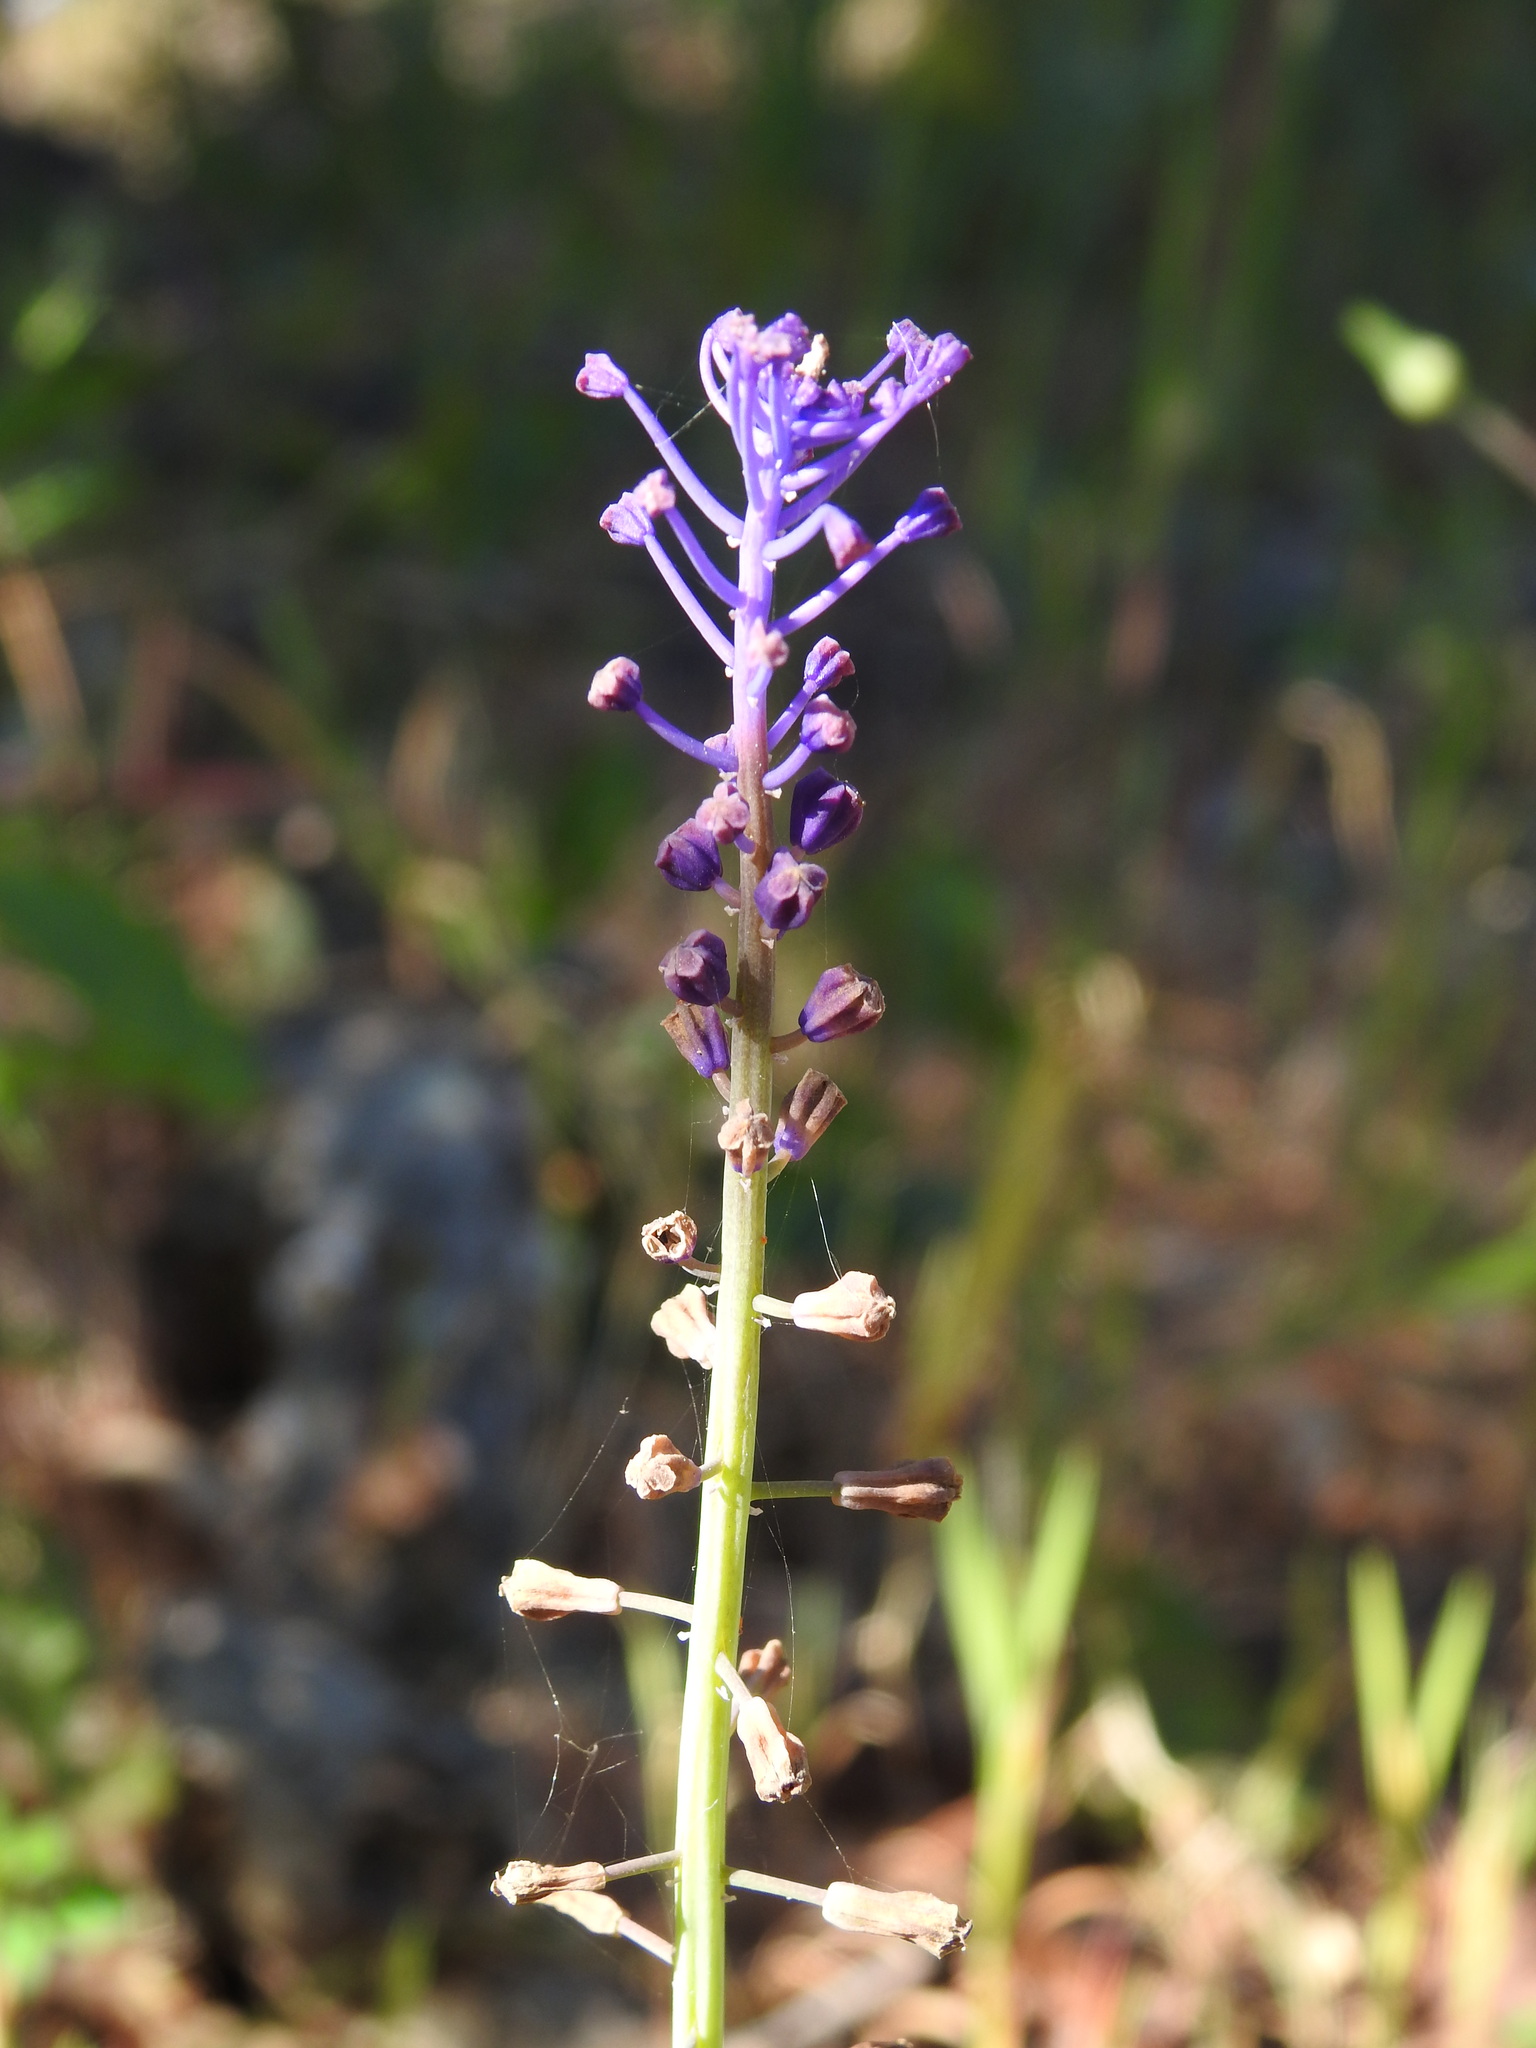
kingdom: Plantae
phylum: Tracheophyta
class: Liliopsida
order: Asparagales
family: Asparagaceae
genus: Muscari
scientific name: Muscari comosum
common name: Tassel hyacinth
